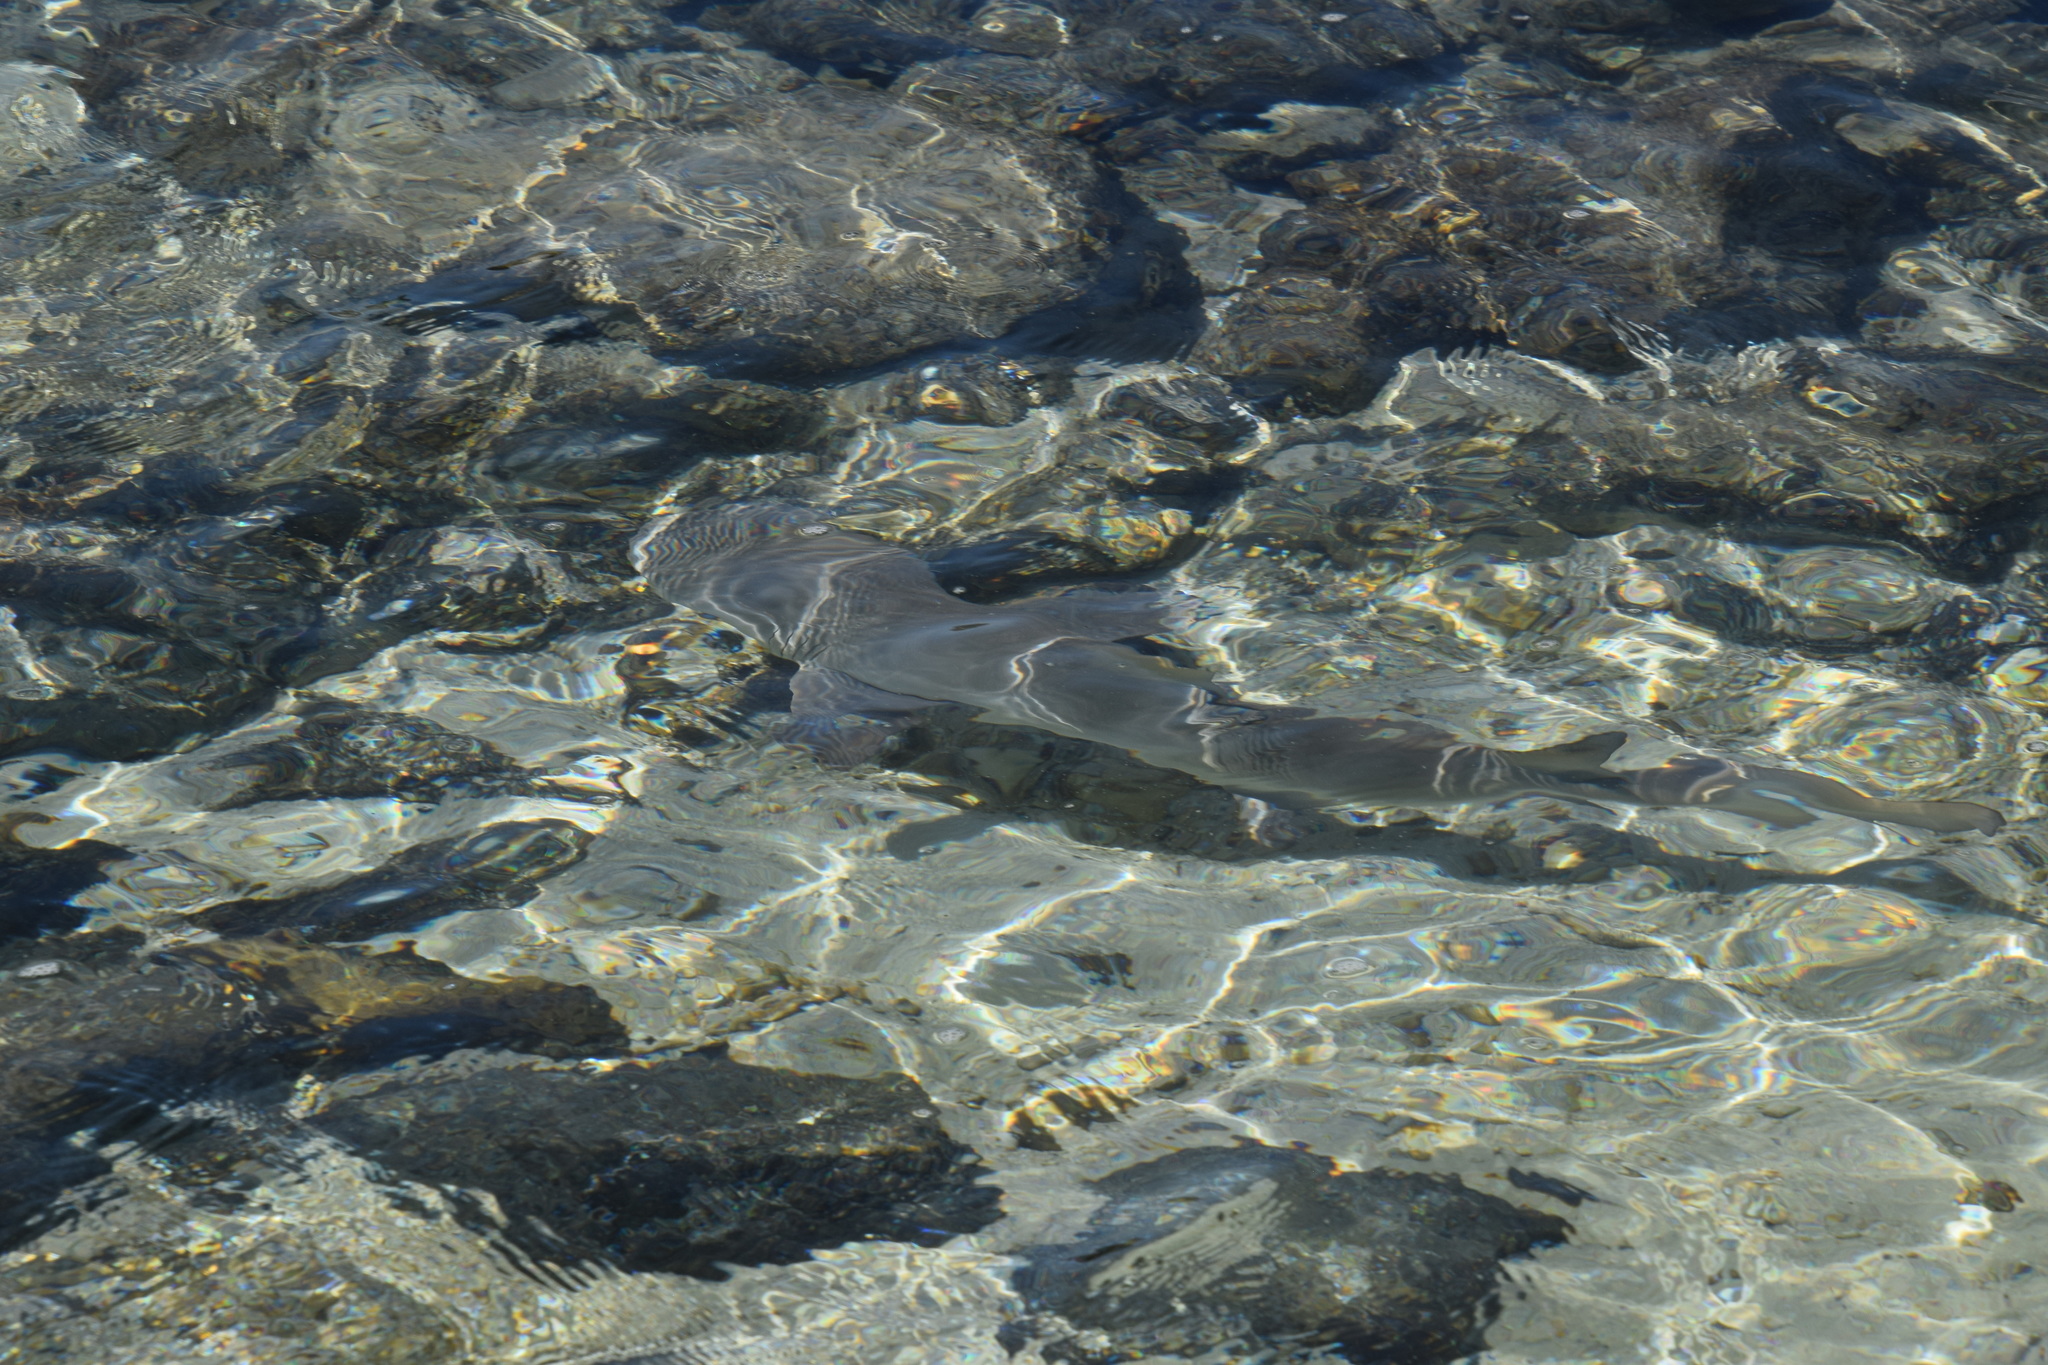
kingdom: Animalia
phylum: Chordata
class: Elasmobranchii
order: Carcharhiniformes
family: Carcharhinidae
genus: Negaprion
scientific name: Negaprion acutidens
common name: Lemon shark
